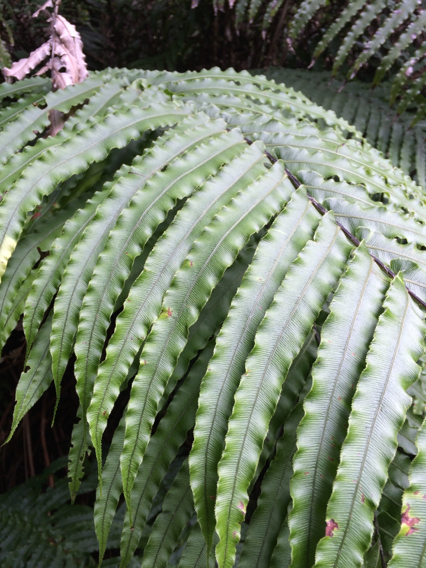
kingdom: Plantae
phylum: Tracheophyta
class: Polypodiopsida
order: Polypodiales
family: Blechnaceae
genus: Parablechnum
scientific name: Parablechnum novae-zelandiae
